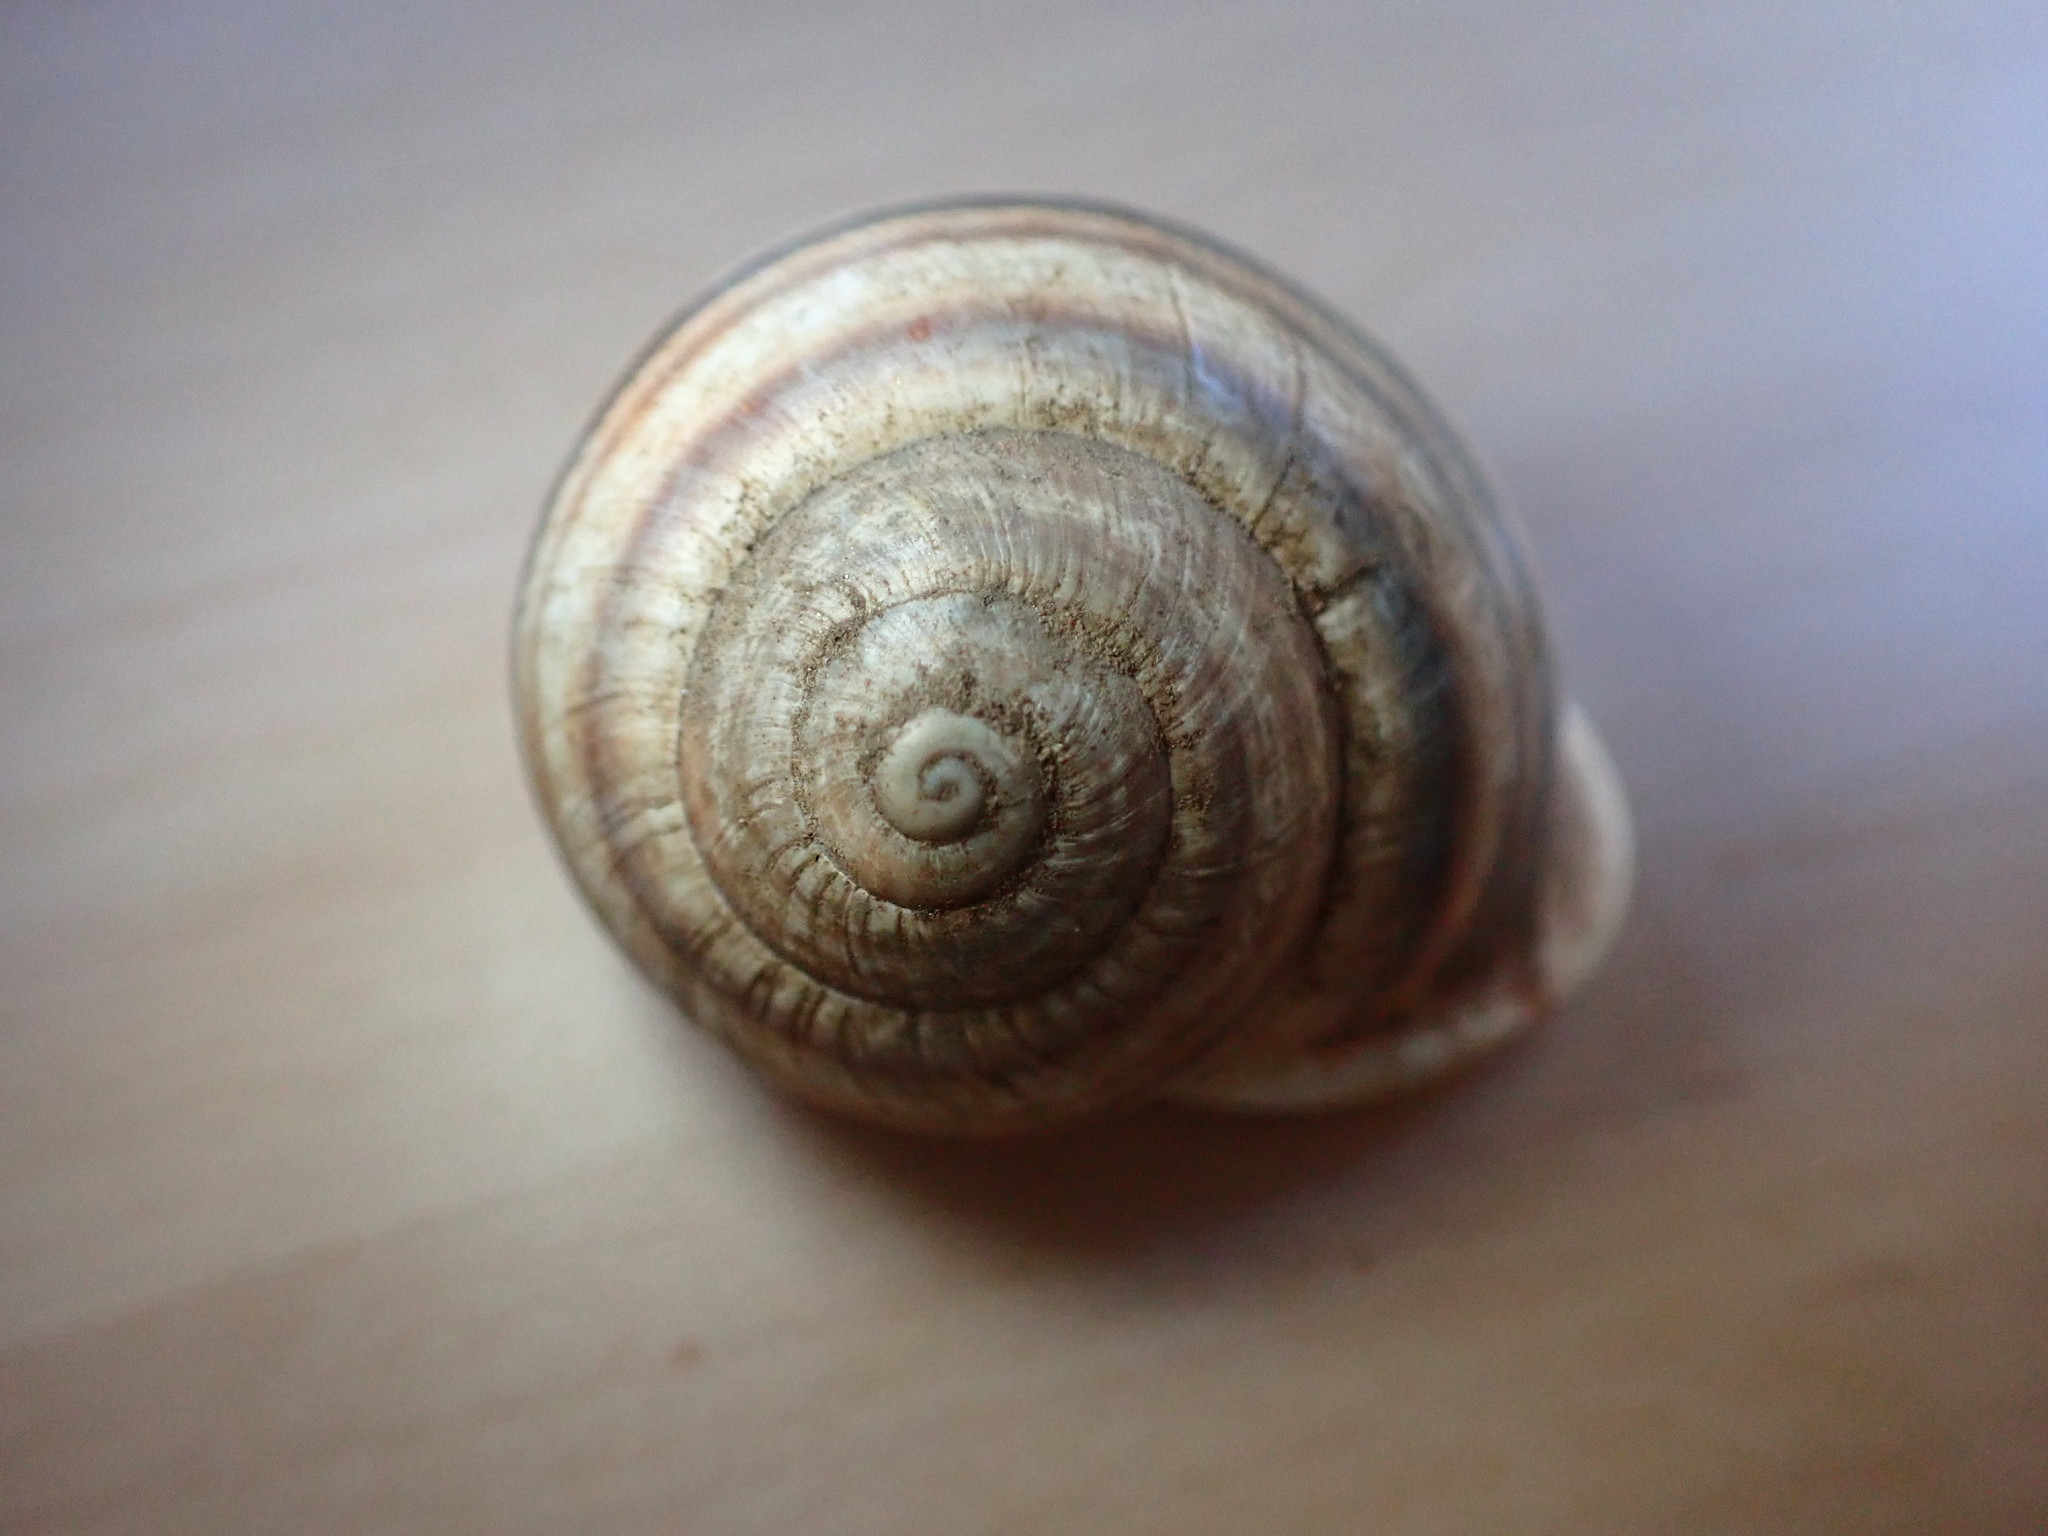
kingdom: Animalia
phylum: Mollusca
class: Gastropoda
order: Stylommatophora
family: Helicidae
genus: Otala
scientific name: Otala lactea
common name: Milk snail
